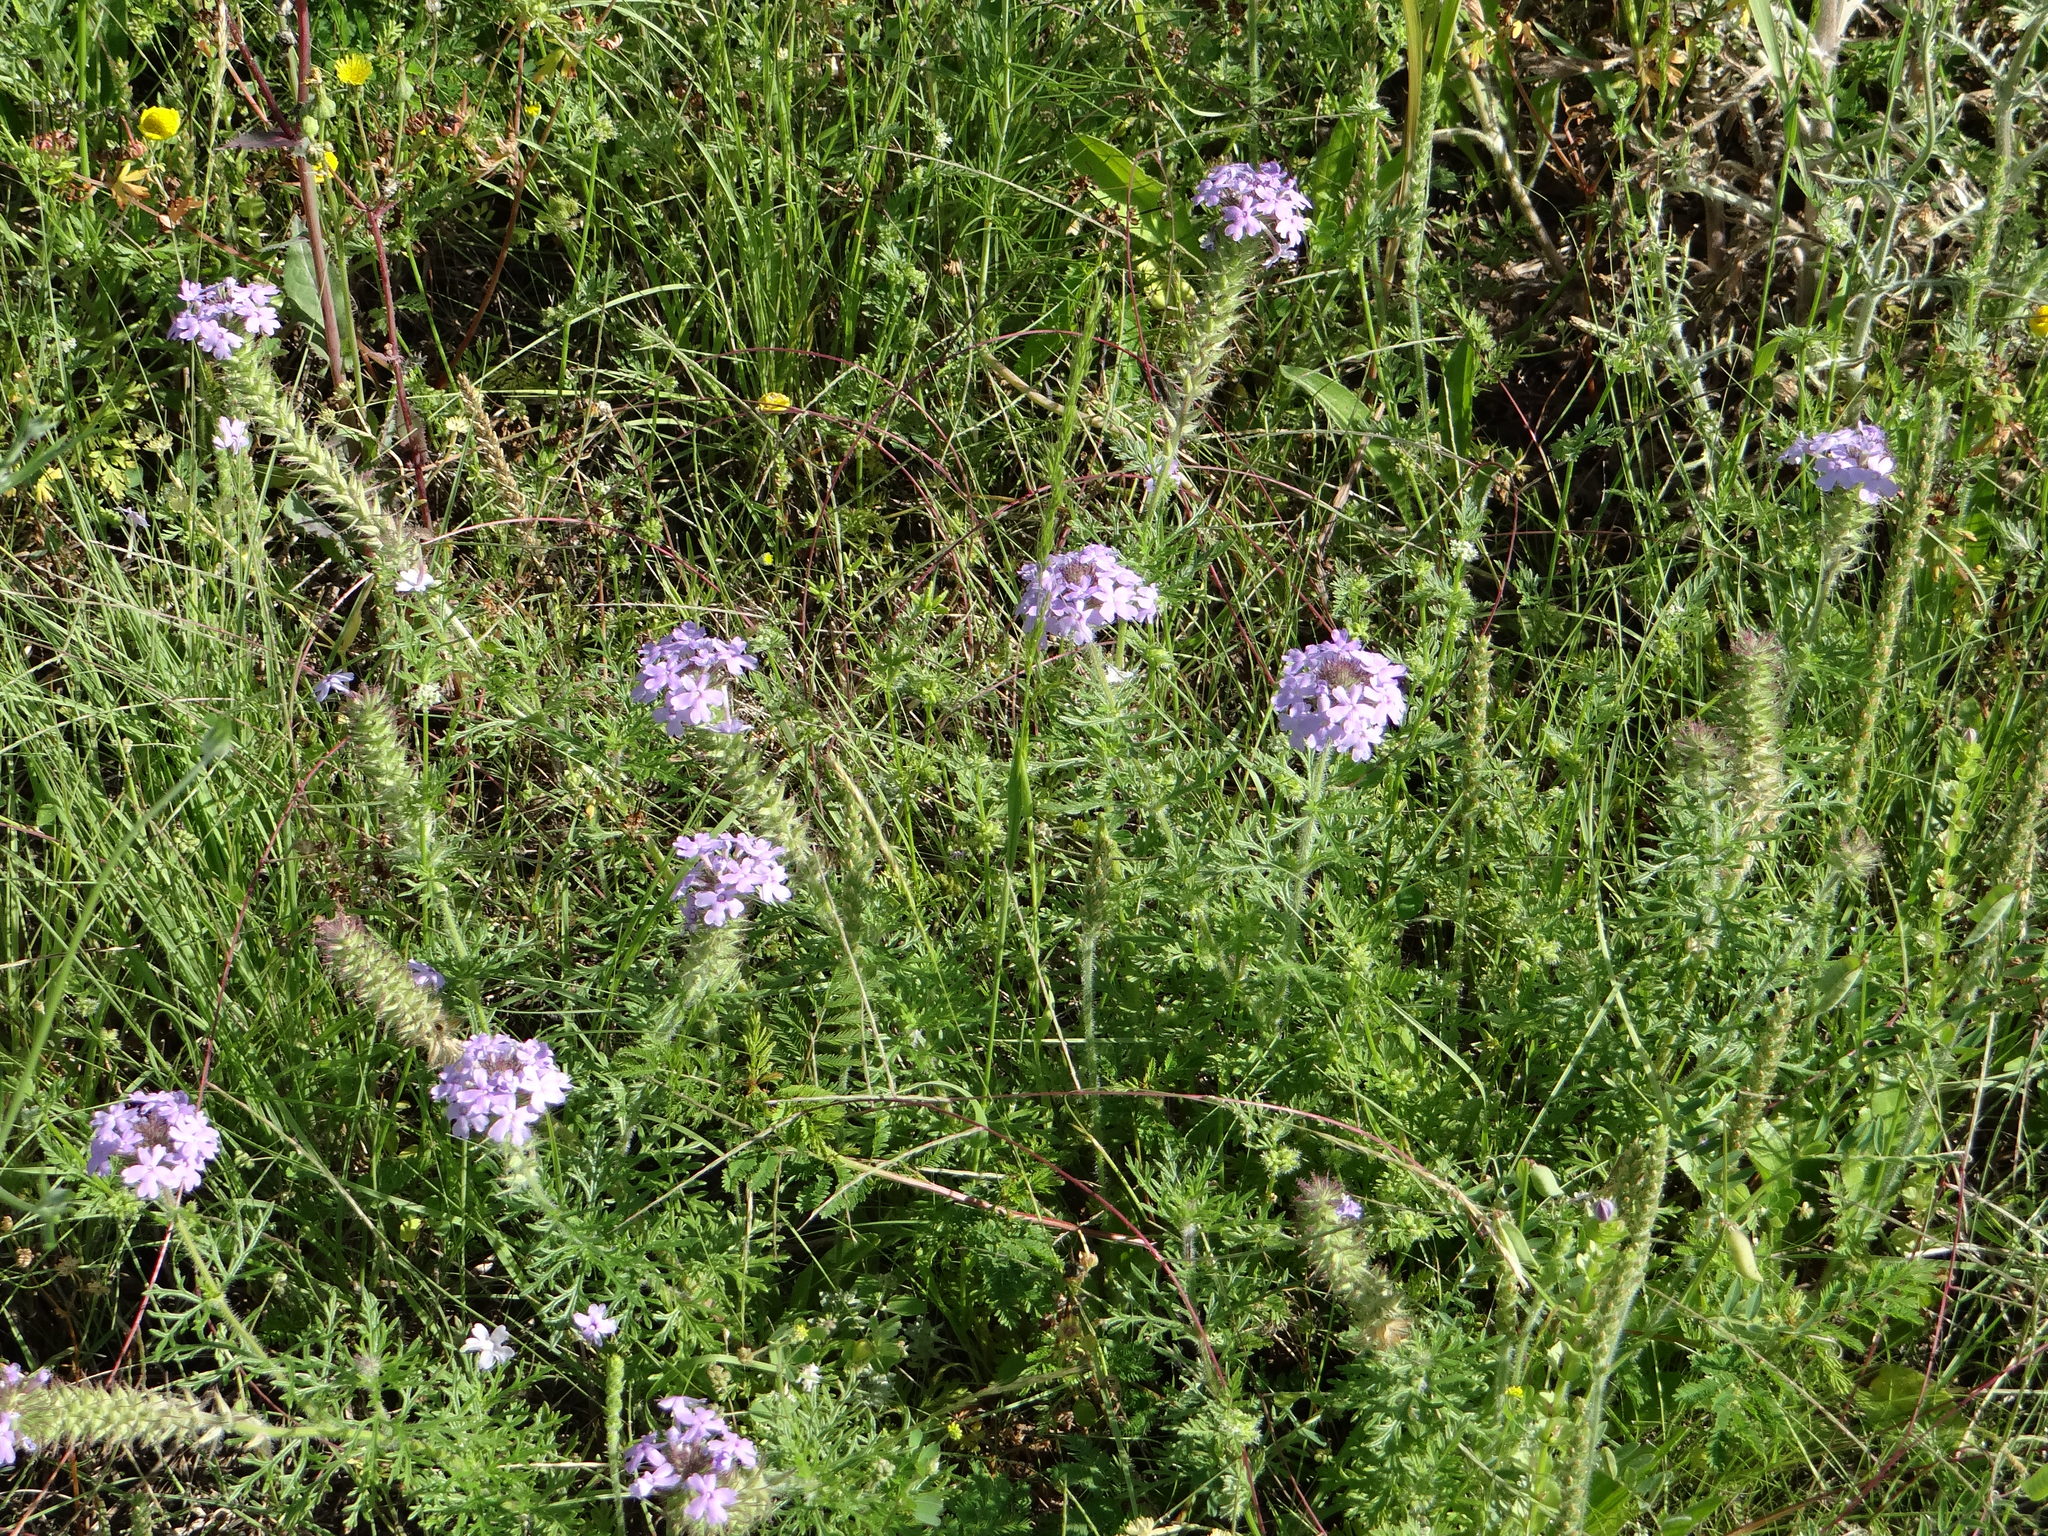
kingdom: Plantae
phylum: Tracheophyta
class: Magnoliopsida
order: Lamiales
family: Verbenaceae
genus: Verbena
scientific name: Verbena bipinnatifida
